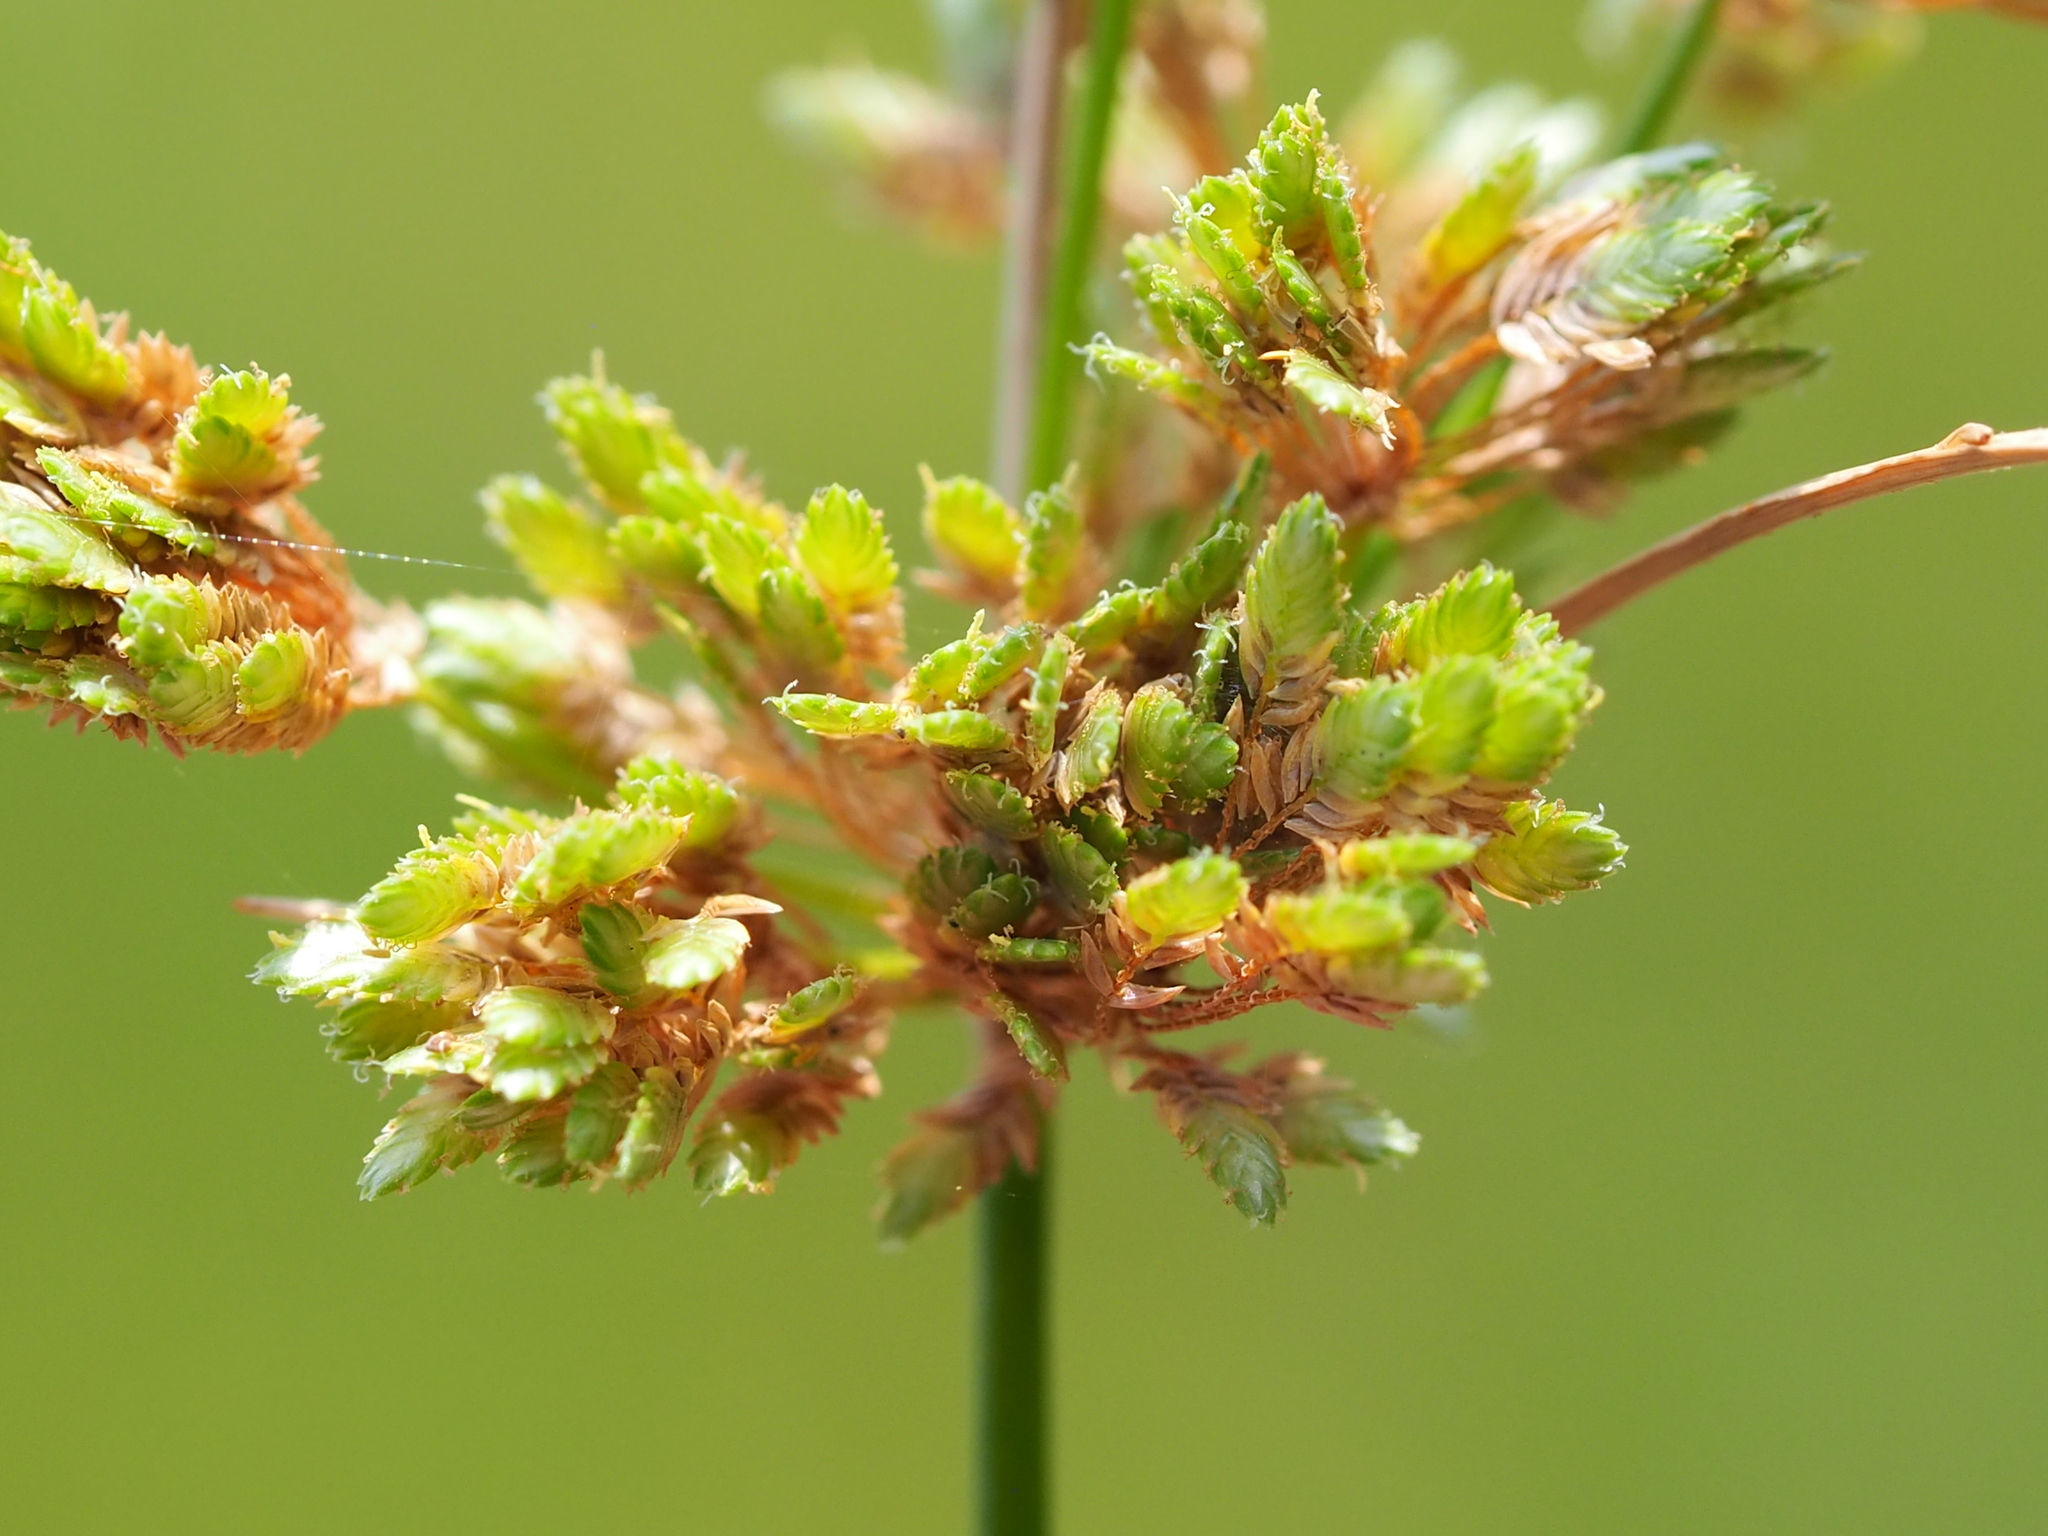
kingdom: Plantae
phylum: Tracheophyta
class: Liliopsida
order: Poales
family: Cyperaceae
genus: Cyperus
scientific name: Cyperus surinamensis
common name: Tropical flat sedge
